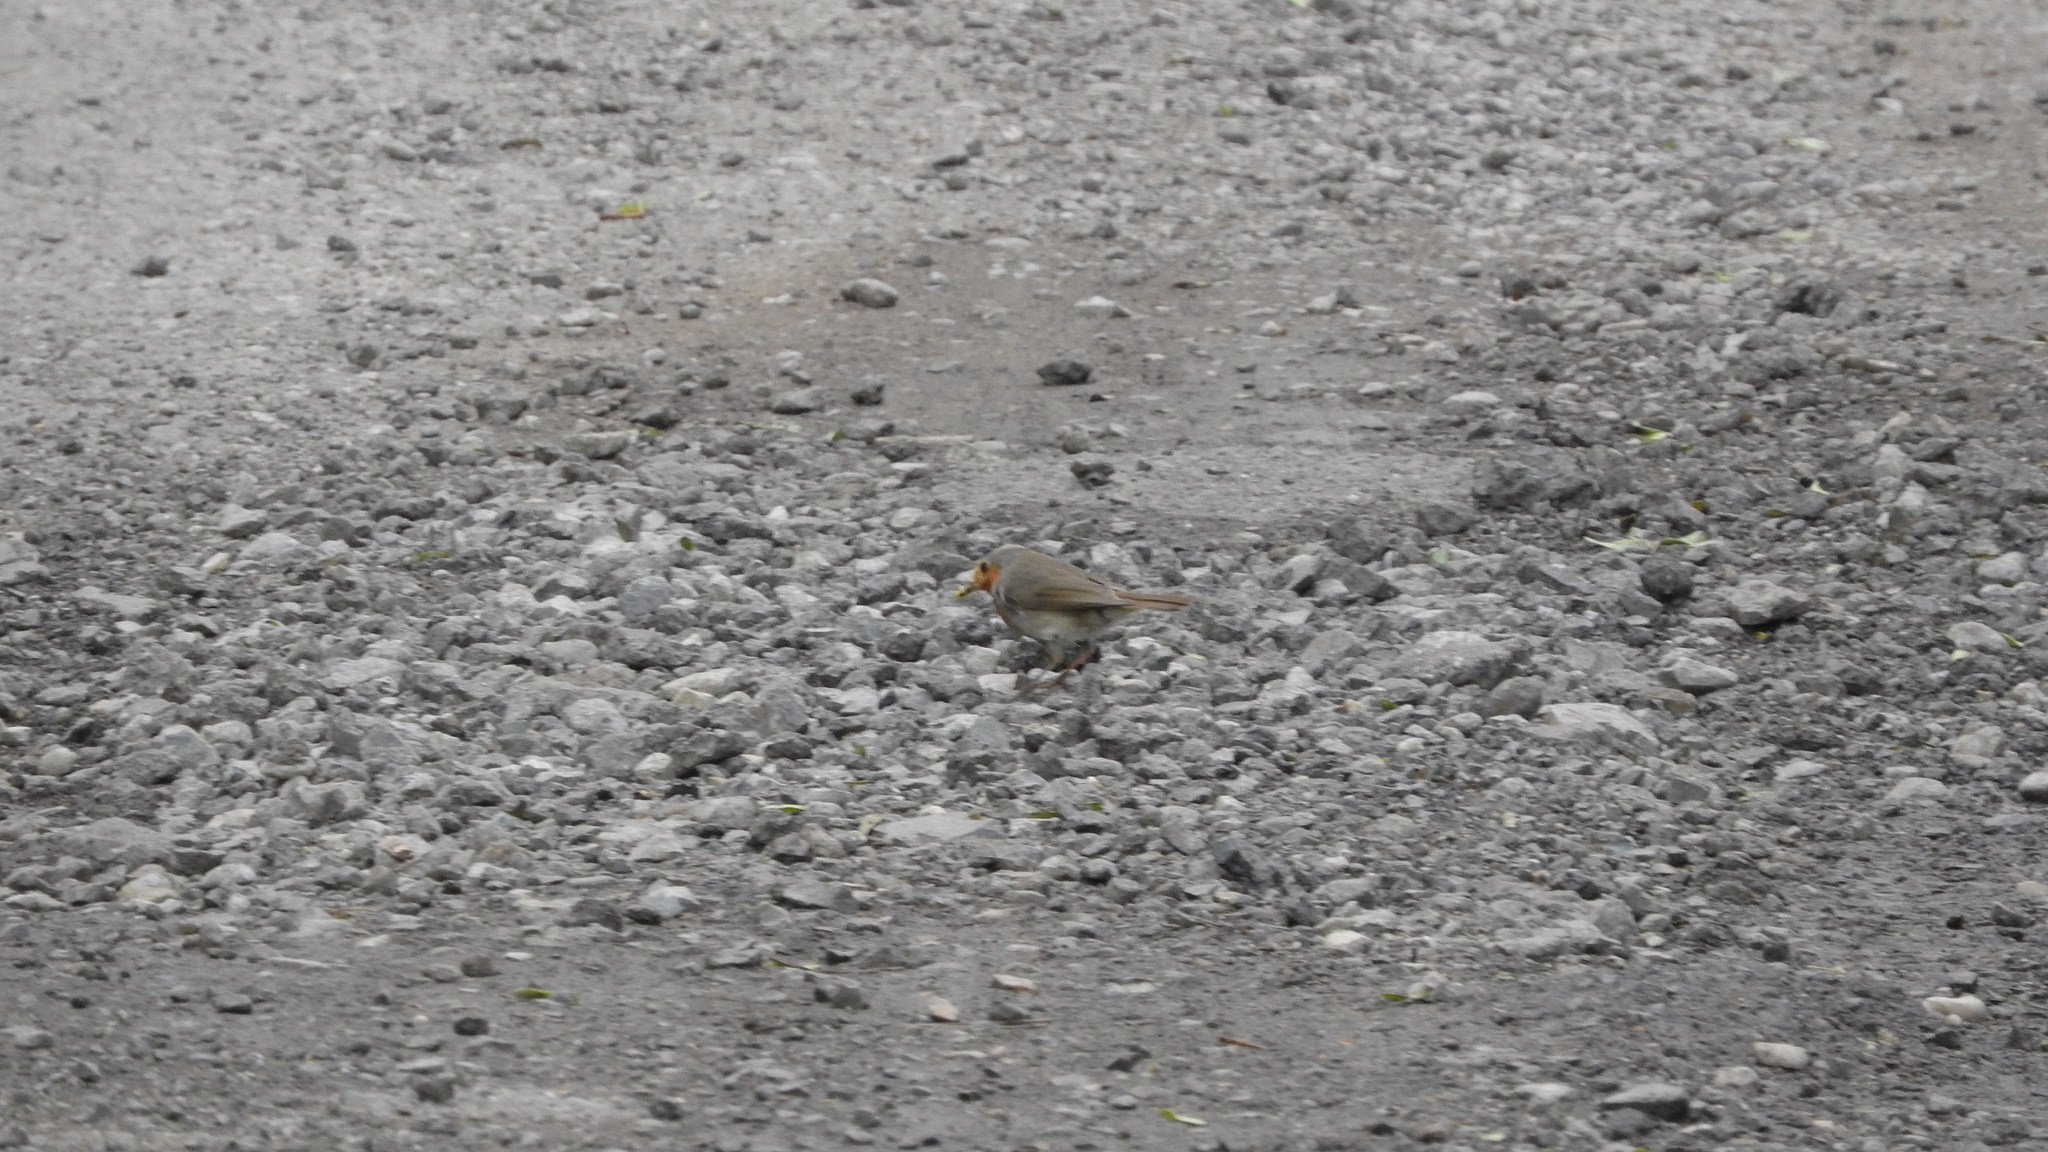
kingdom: Animalia
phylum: Chordata
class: Aves
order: Passeriformes
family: Muscicapidae
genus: Erithacus
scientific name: Erithacus rubecula
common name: European robin
